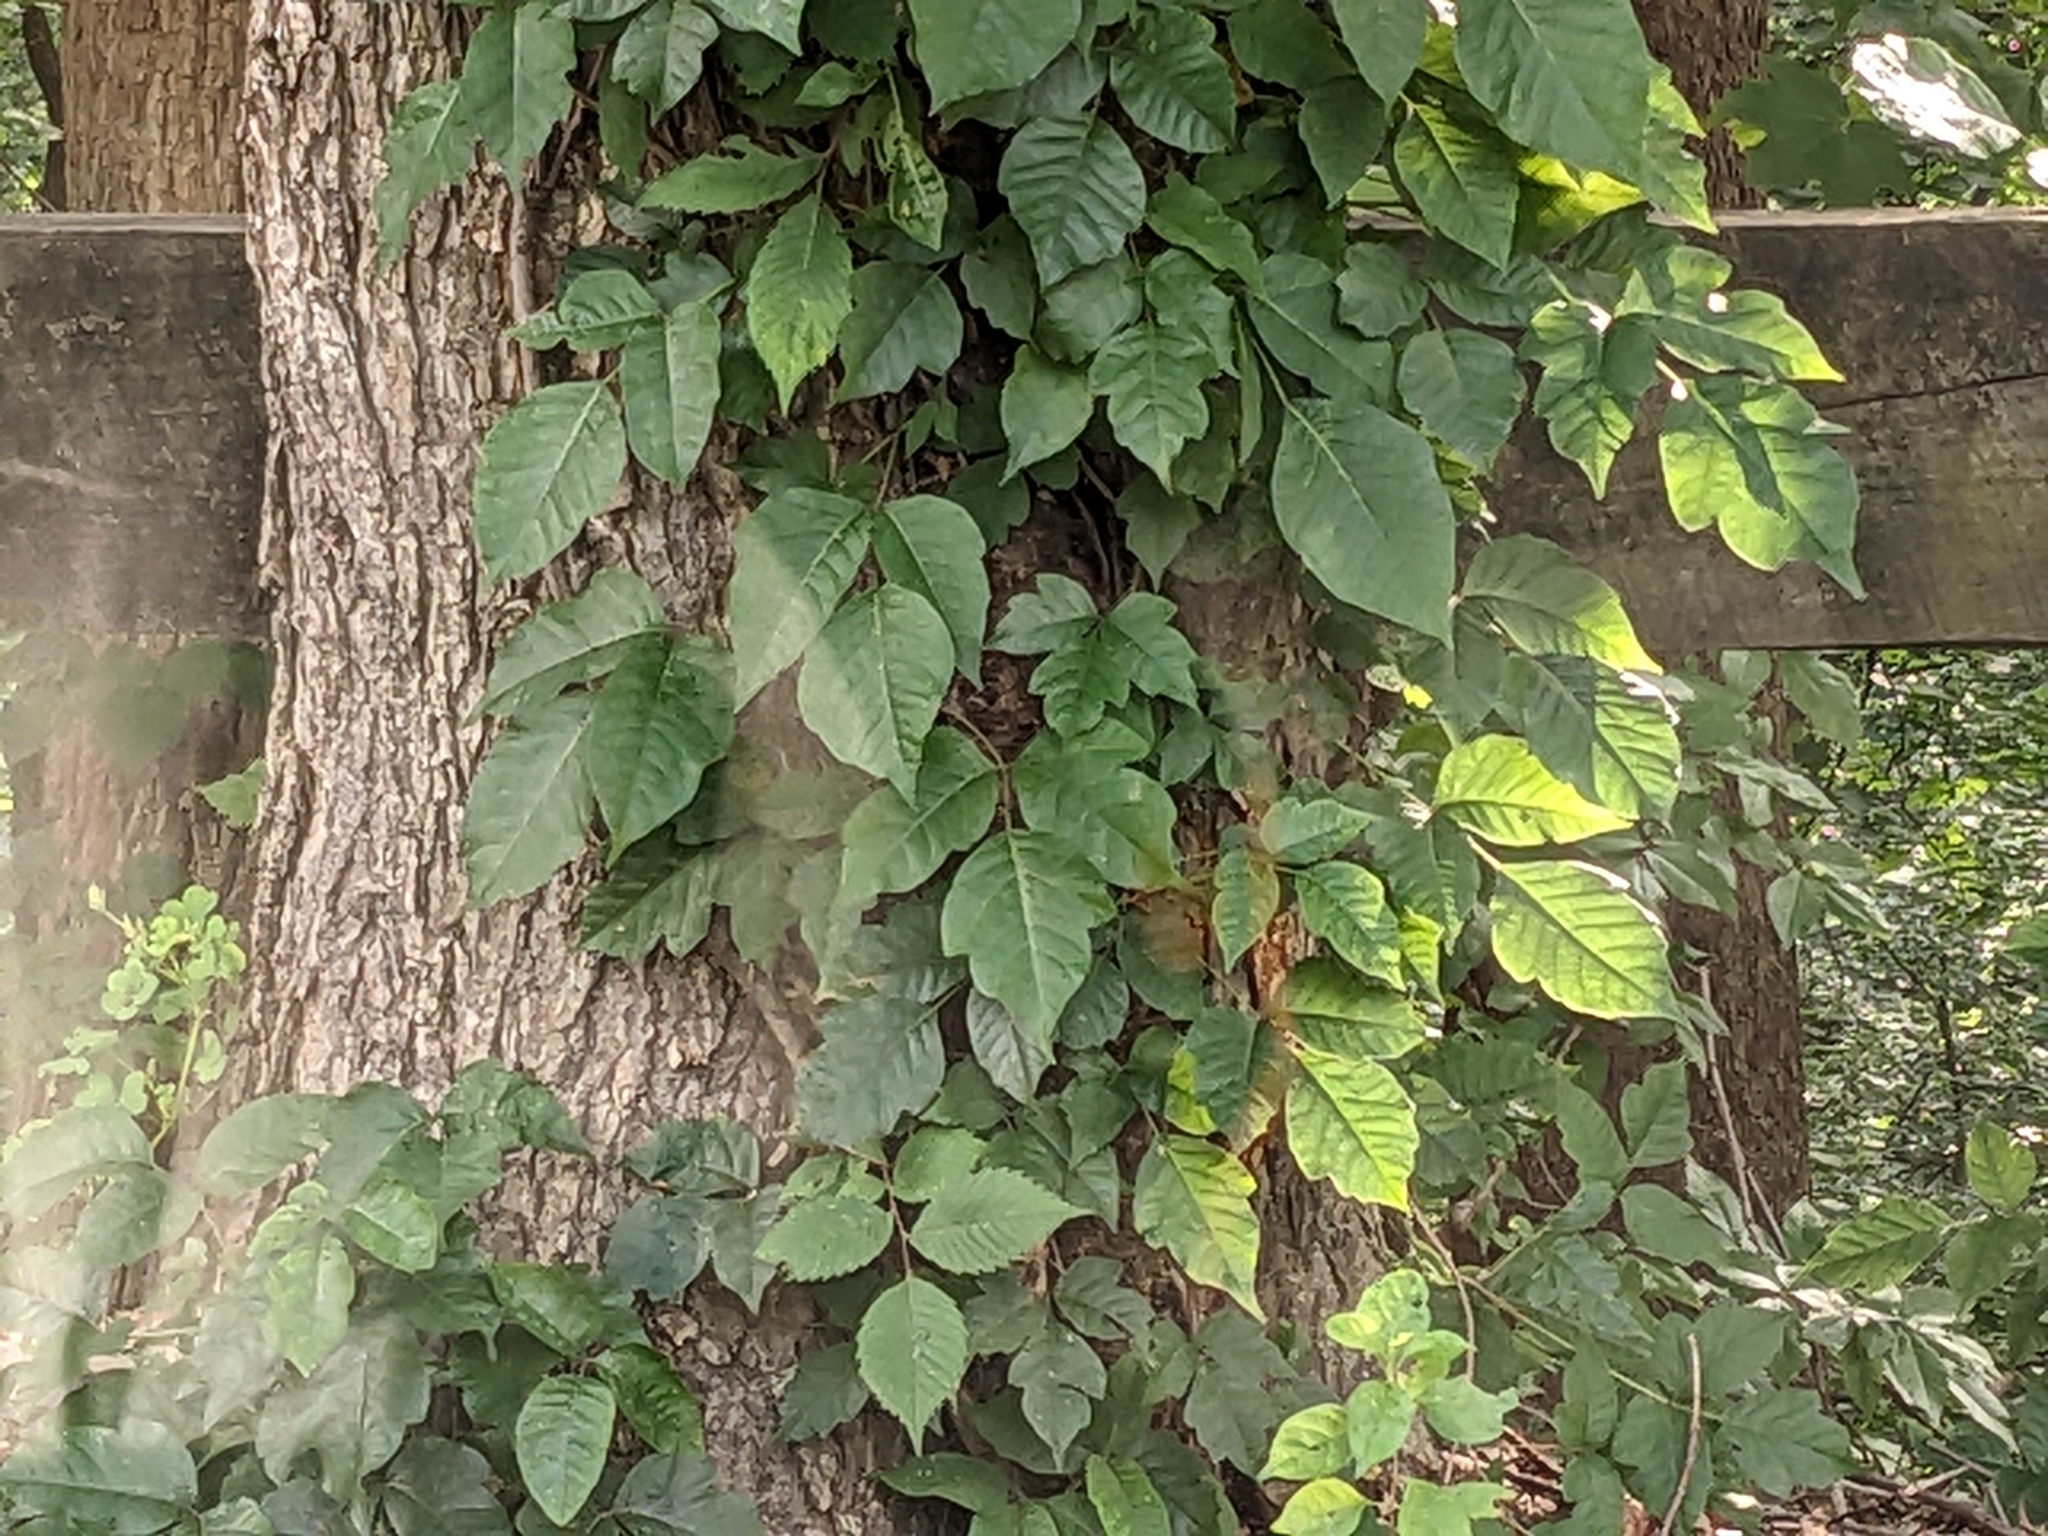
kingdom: Plantae
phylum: Tracheophyta
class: Magnoliopsida
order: Sapindales
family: Anacardiaceae
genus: Toxicodendron
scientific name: Toxicodendron radicans
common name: Poison ivy
